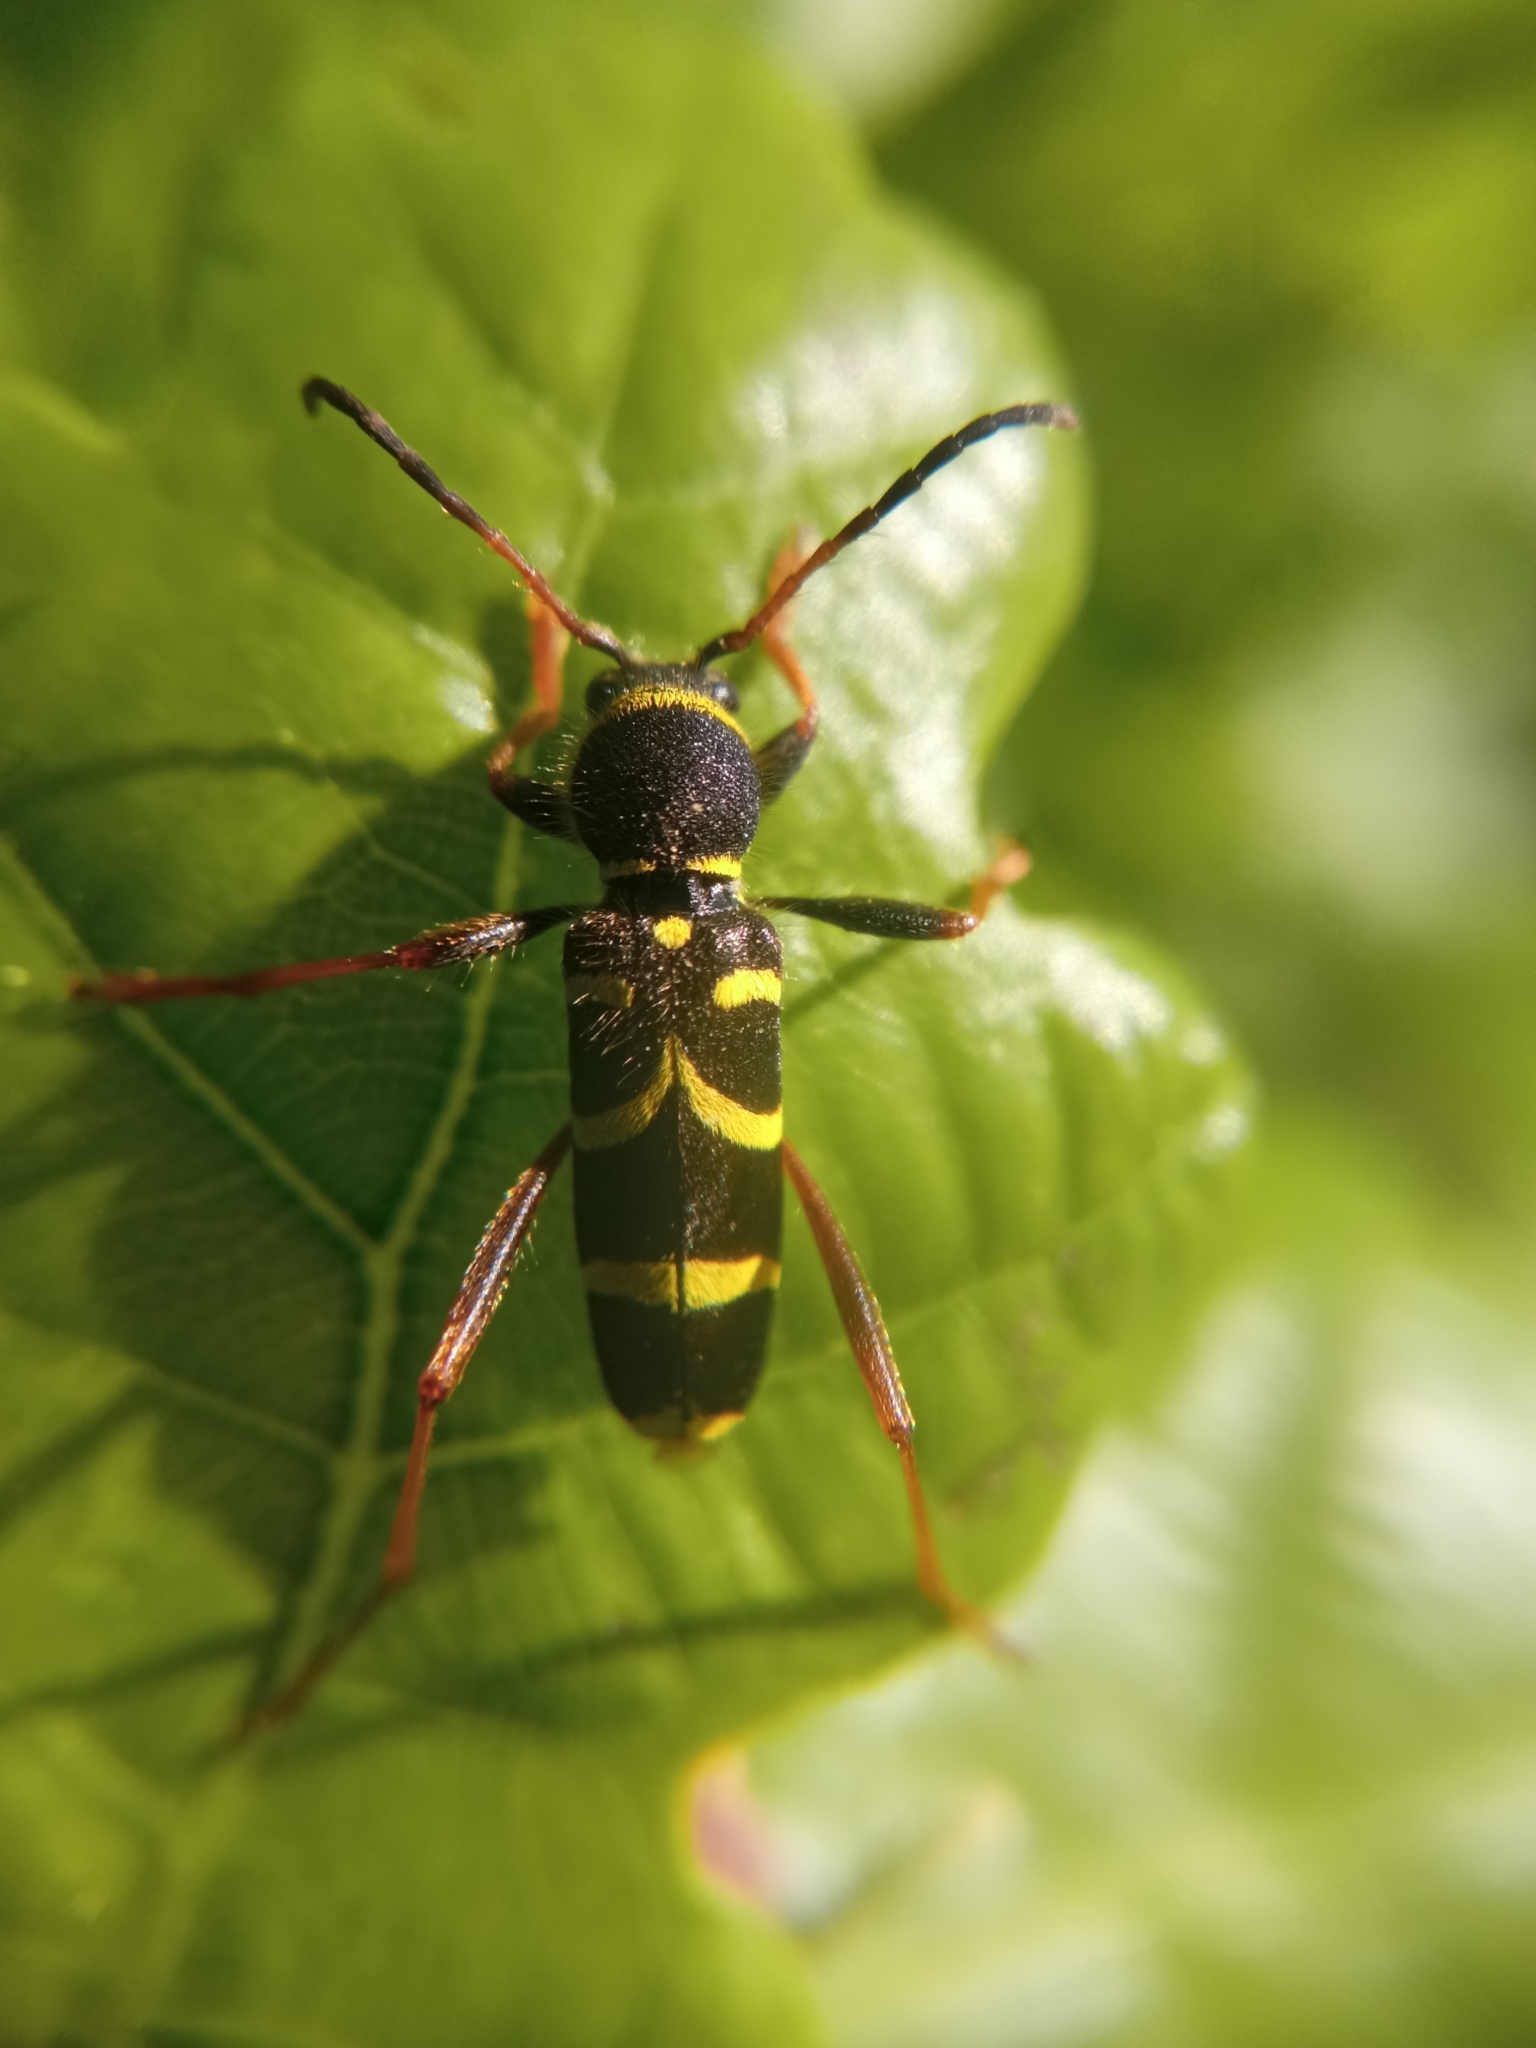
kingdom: Animalia
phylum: Arthropoda
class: Insecta
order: Coleoptera
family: Cerambycidae
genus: Clytus
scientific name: Clytus arietis
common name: Wasp beetle
